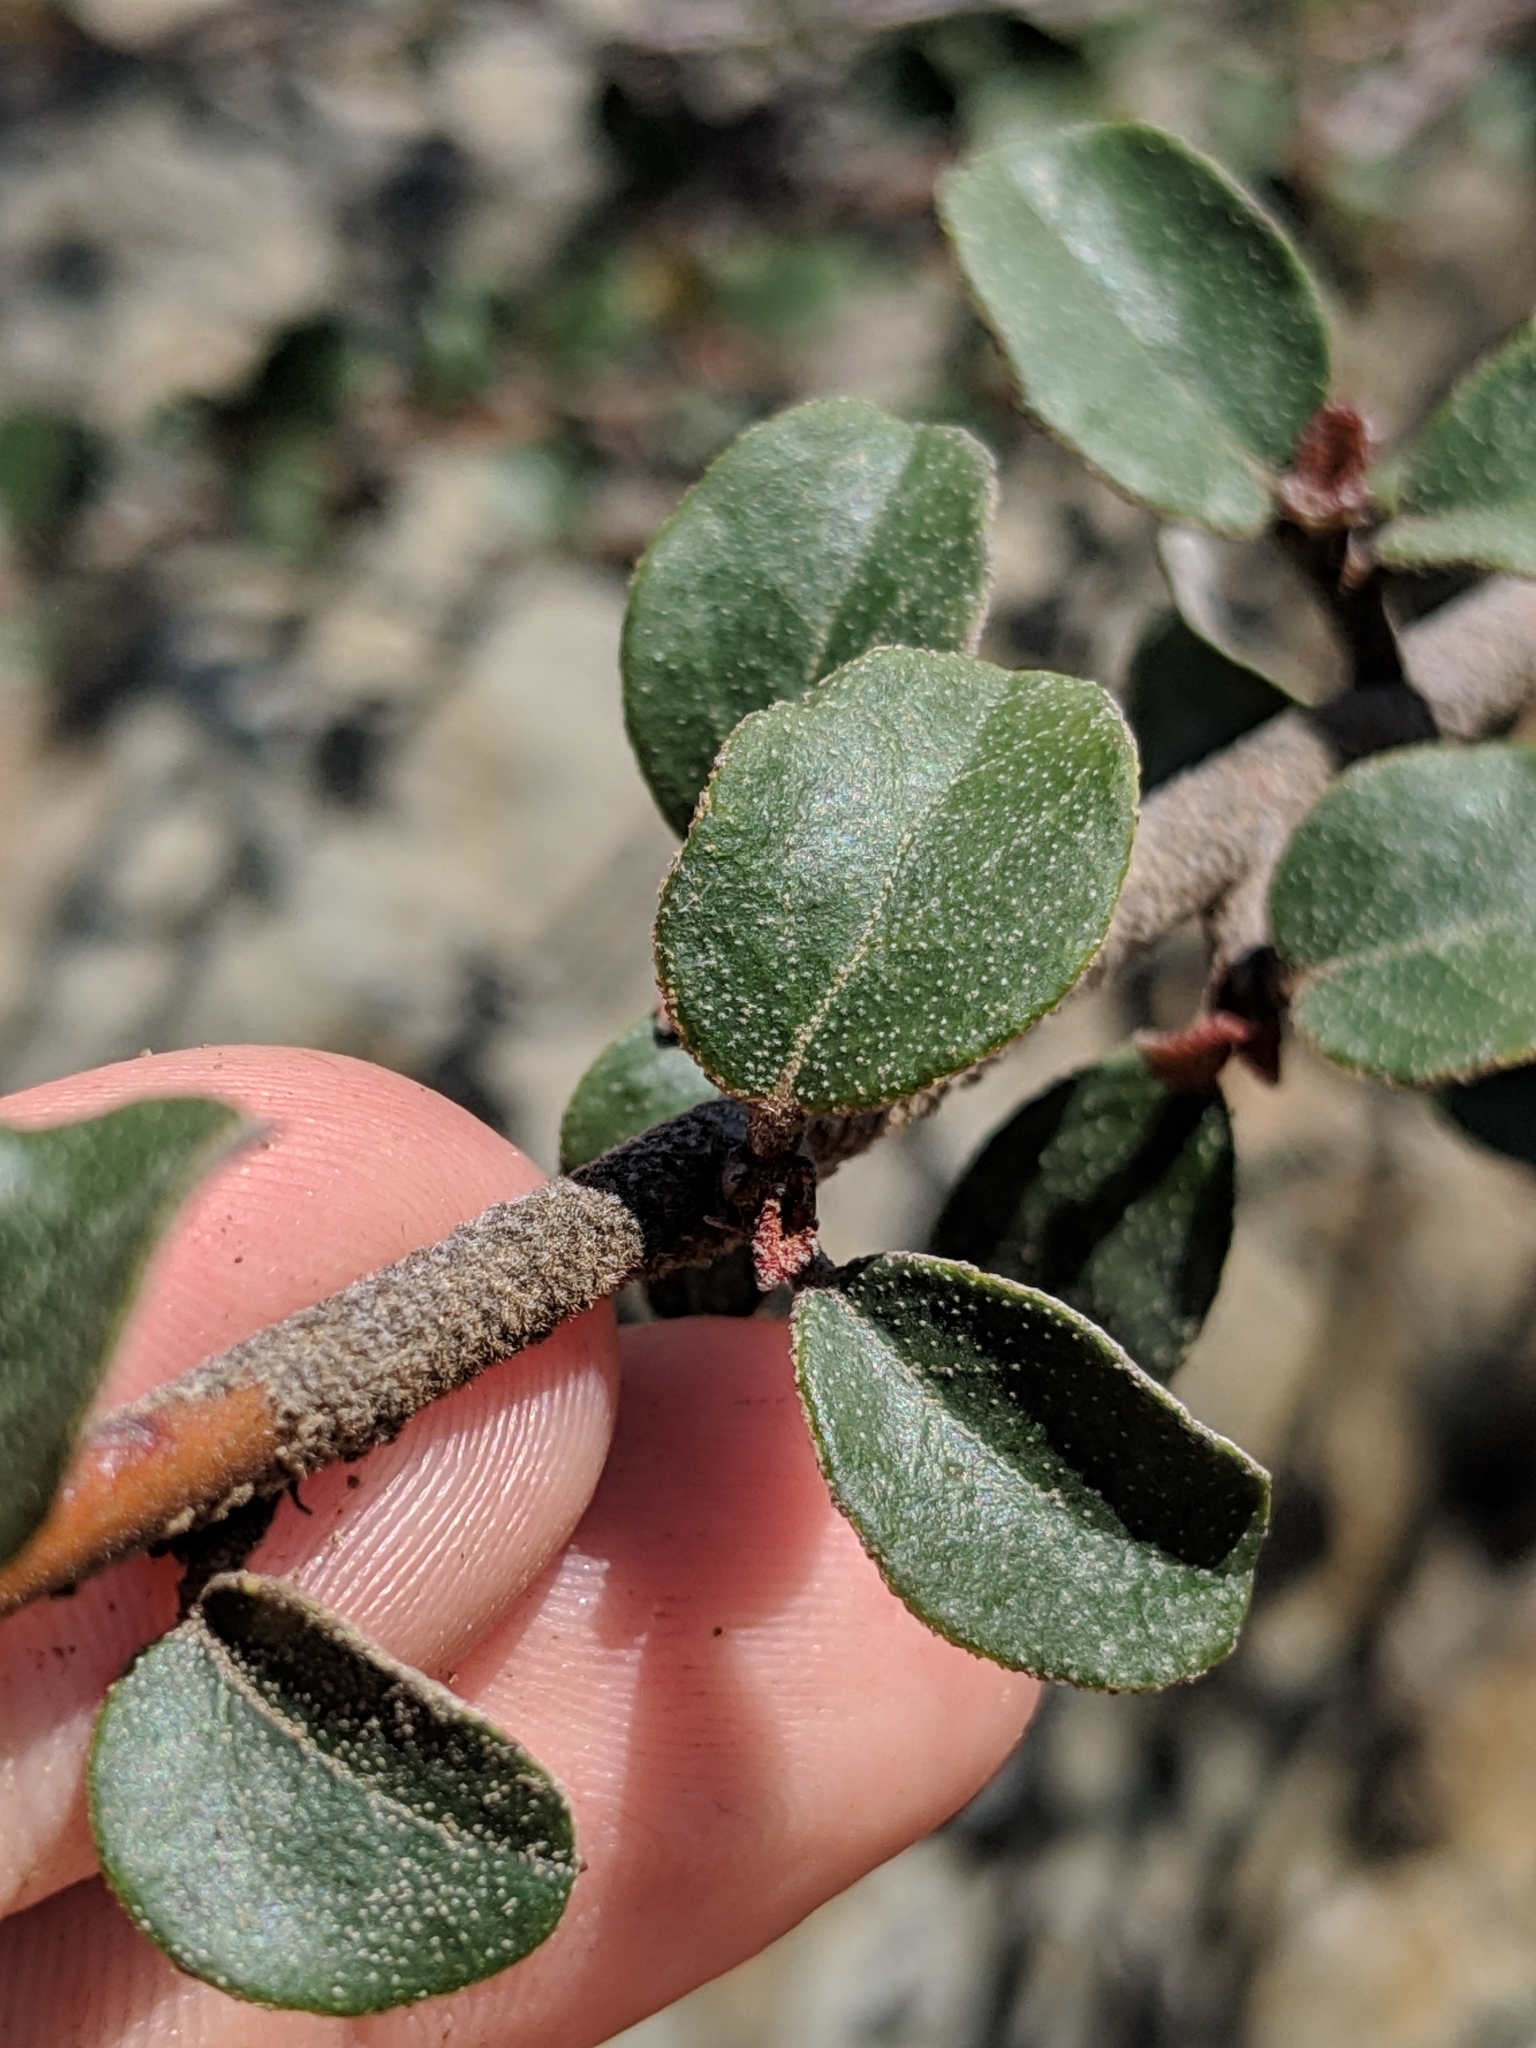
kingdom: Plantae
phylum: Tracheophyta
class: Magnoliopsida
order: Malvales
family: Malvaceae
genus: Fremontodendron
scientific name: Fremontodendron californicum
